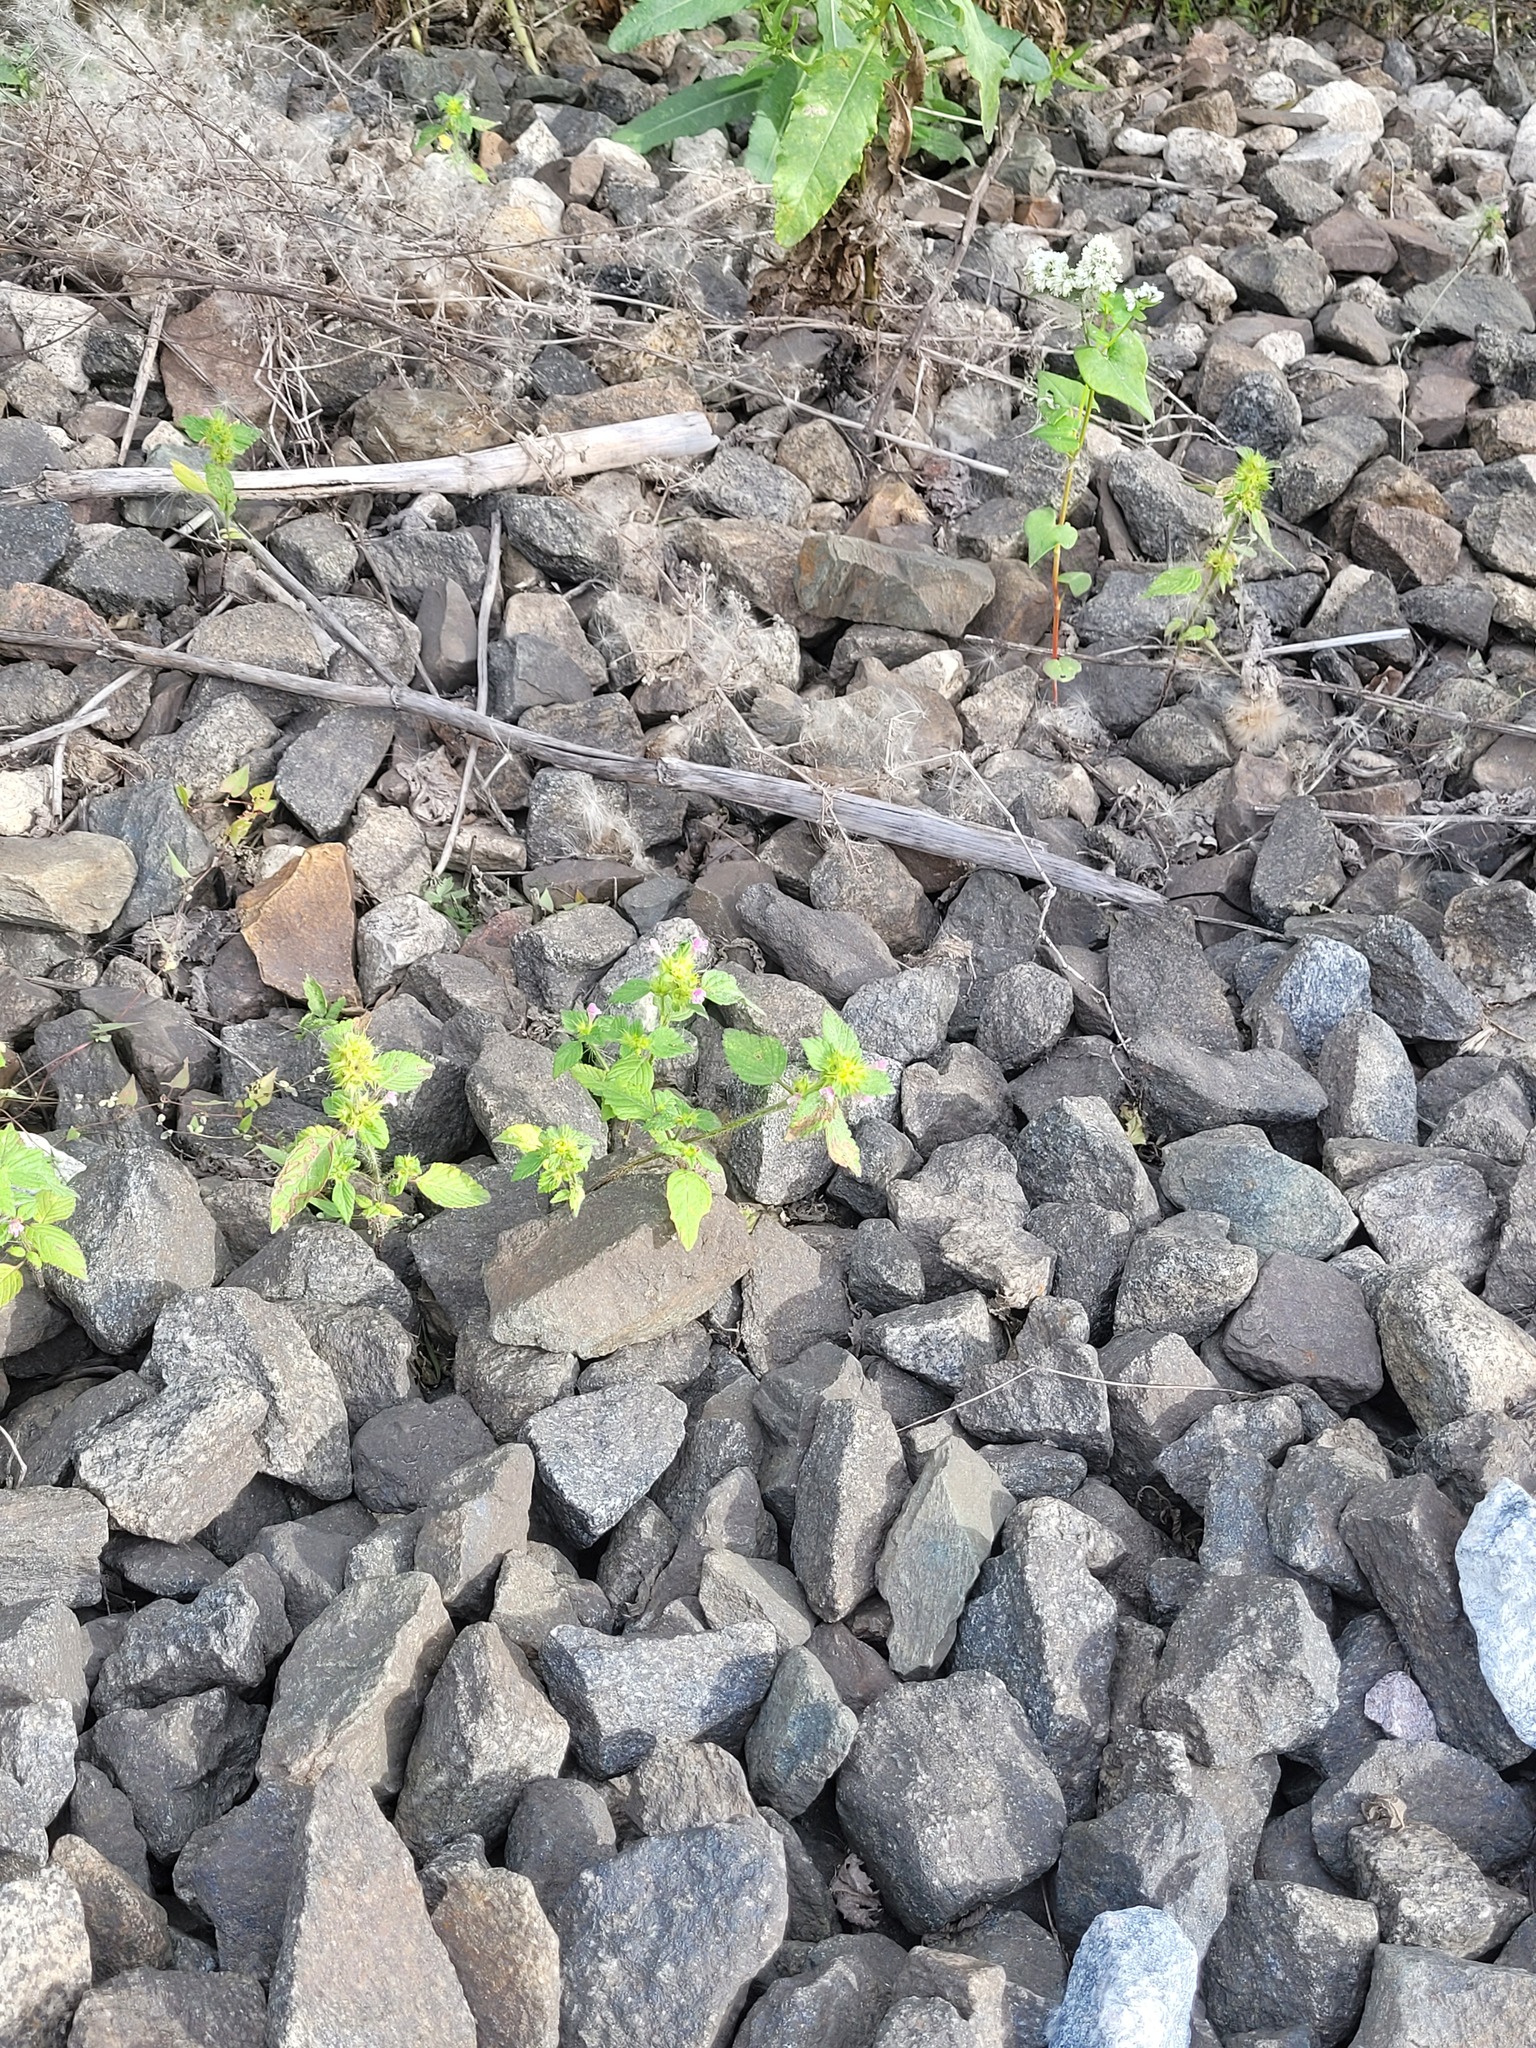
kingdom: Plantae
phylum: Tracheophyta
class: Magnoliopsida
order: Lamiales
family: Lamiaceae
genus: Galeopsis
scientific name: Galeopsis bifida
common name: Bifid hemp-nettle
